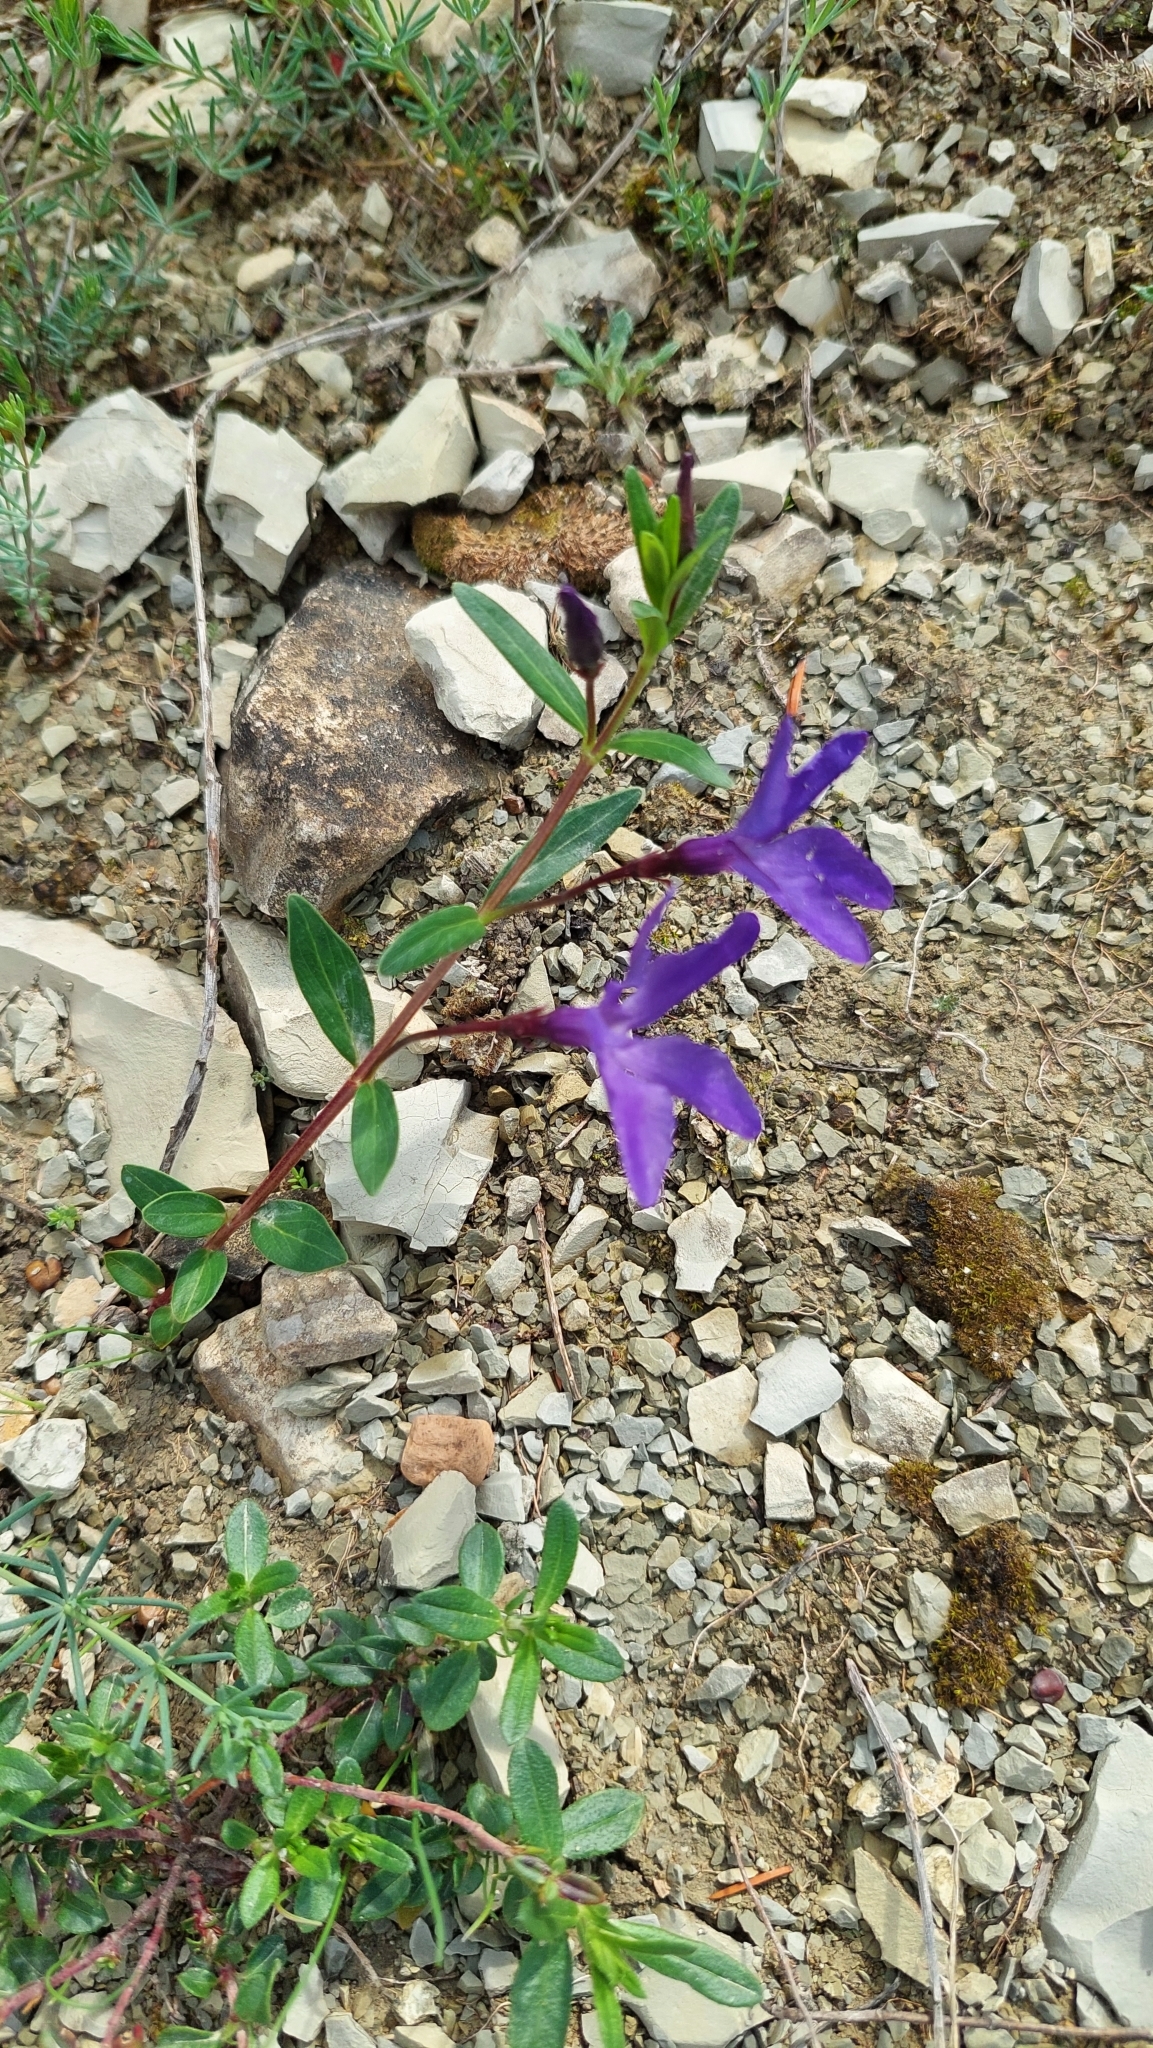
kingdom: Plantae
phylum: Tracheophyta
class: Magnoliopsida
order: Gentianales
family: Apocynaceae
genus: Vinca
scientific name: Vinca herbacea
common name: Herbaceous periwinkle
